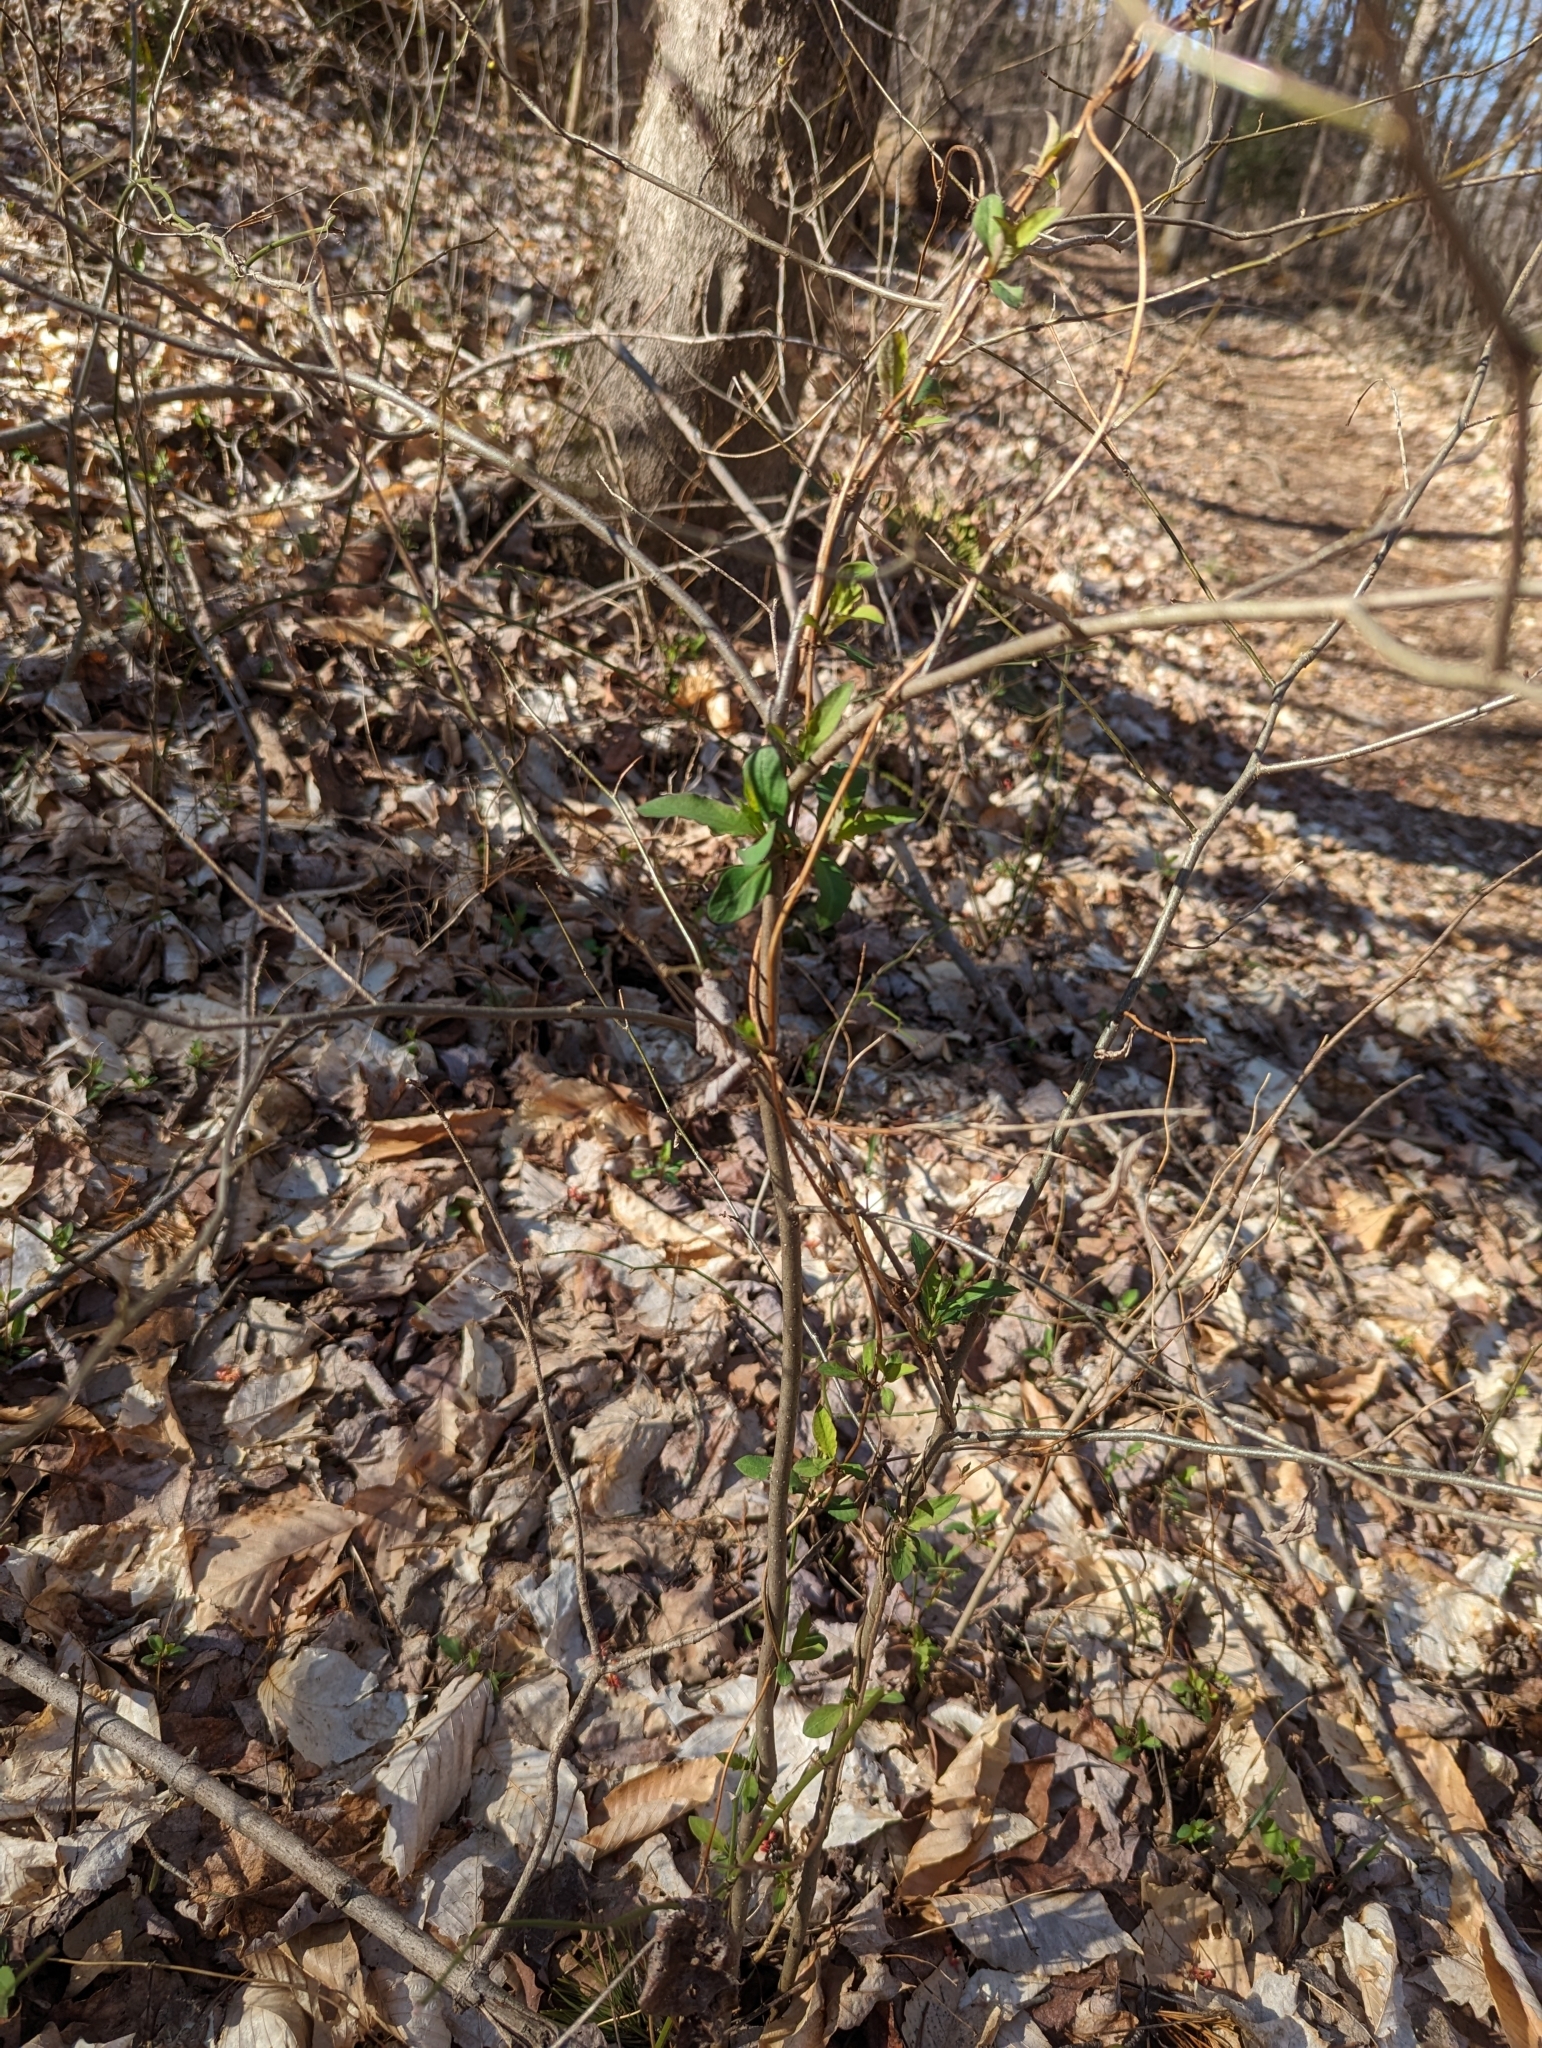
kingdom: Plantae
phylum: Tracheophyta
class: Magnoliopsida
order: Dipsacales
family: Caprifoliaceae
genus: Lonicera
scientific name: Lonicera japonica
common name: Japanese honeysuckle
